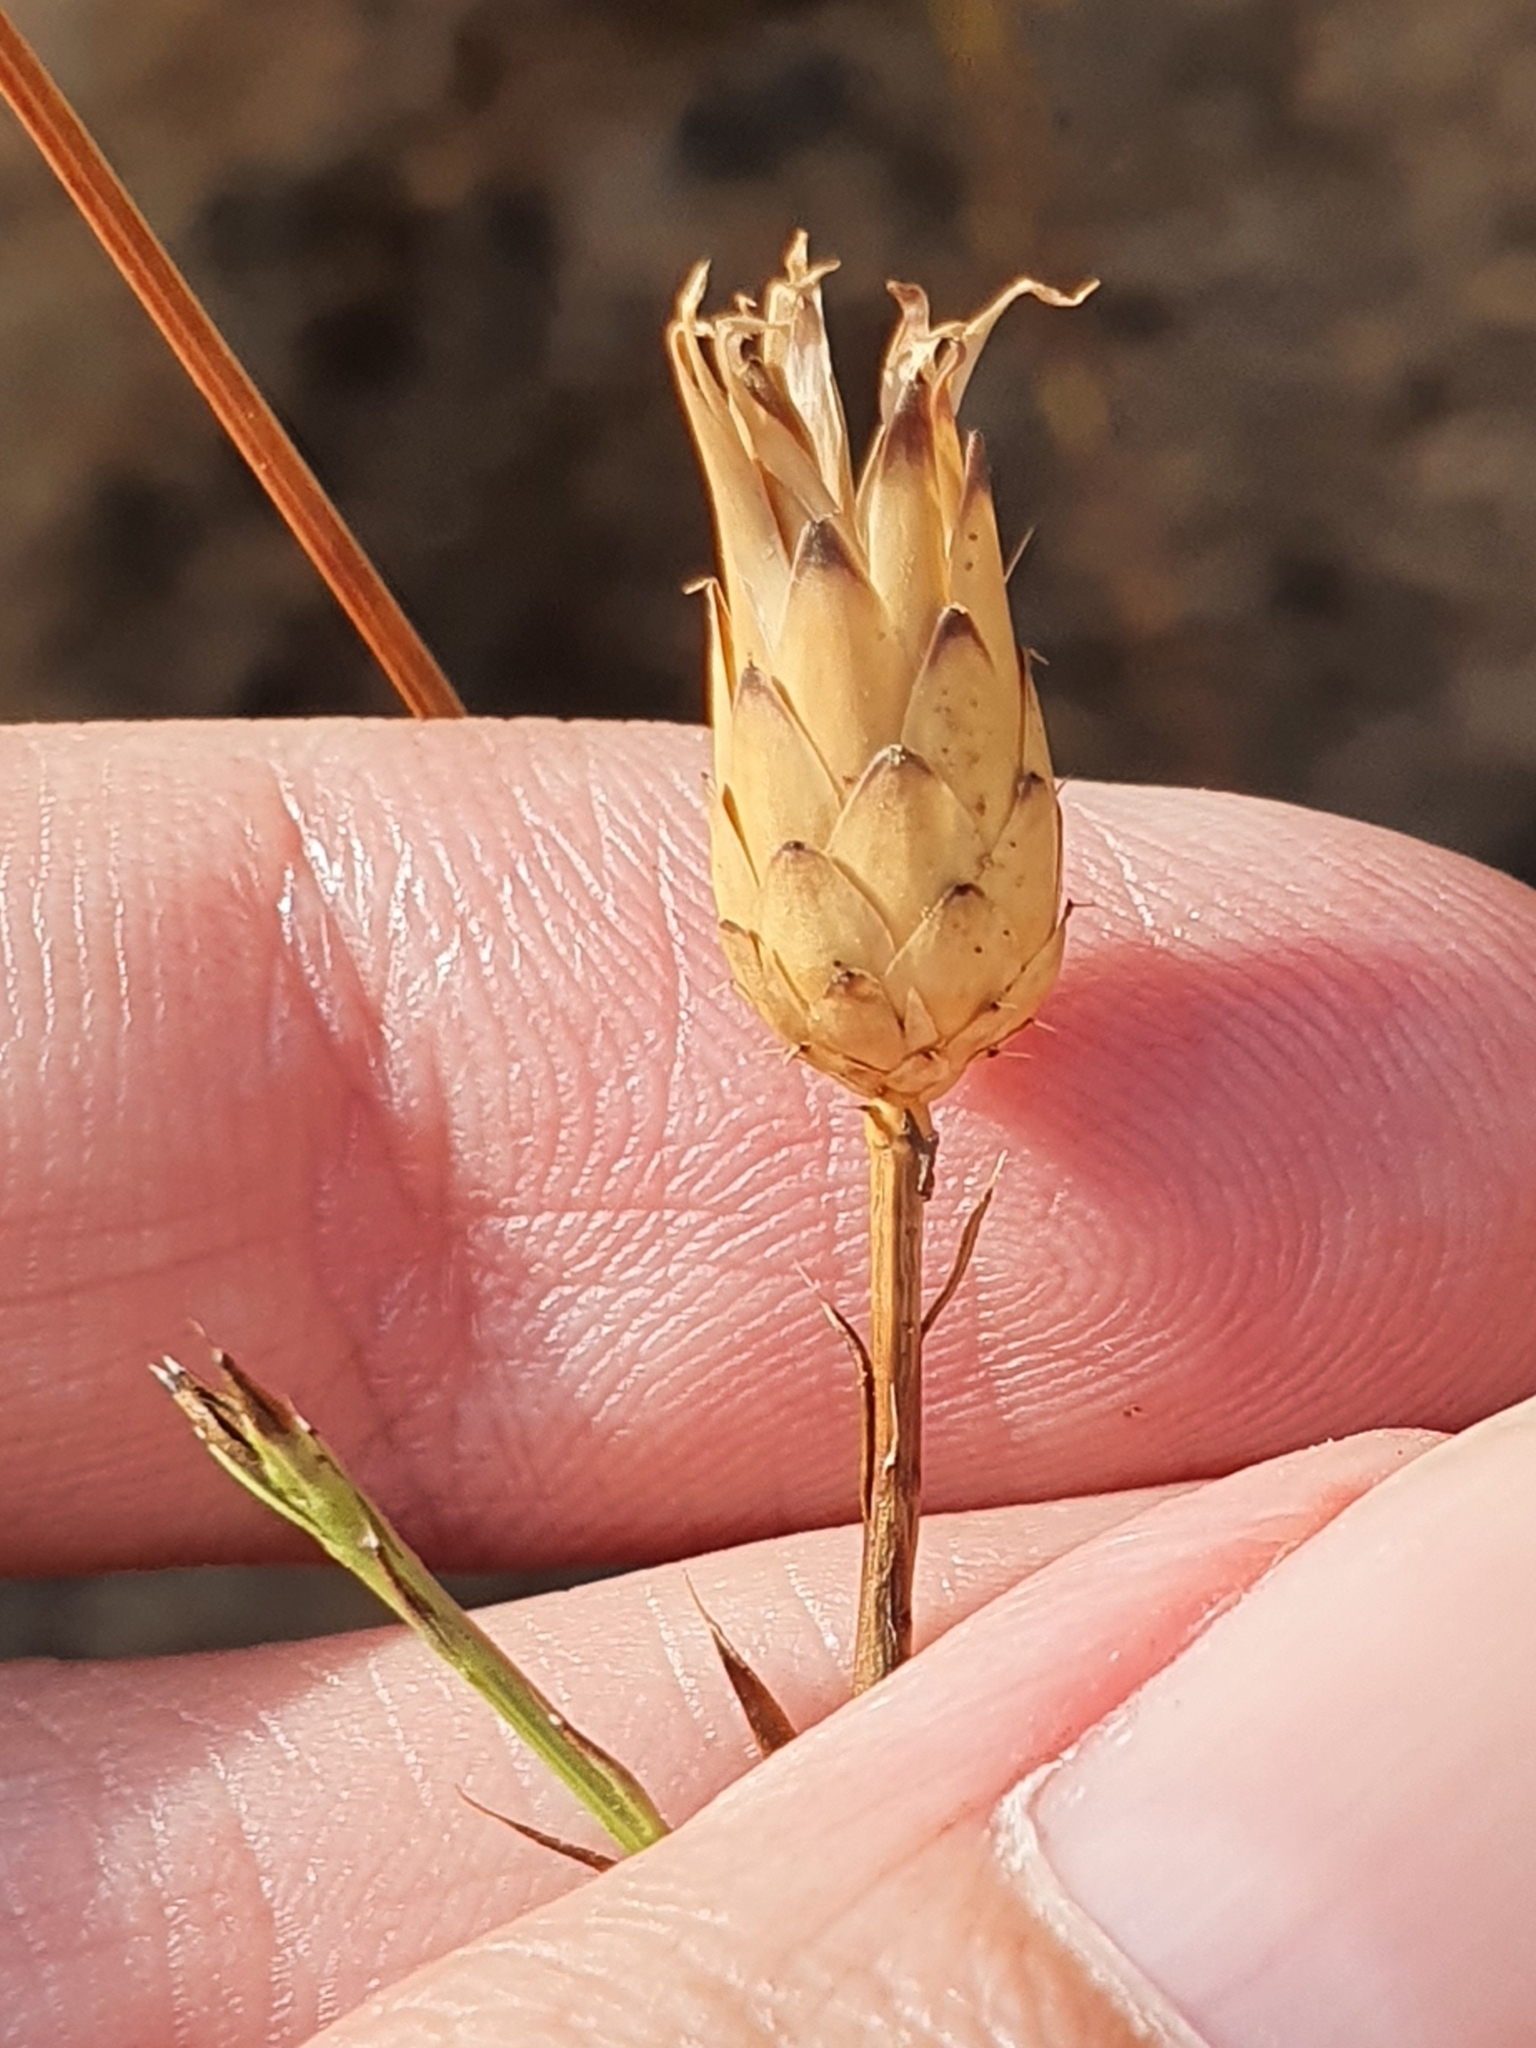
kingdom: Plantae
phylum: Tracheophyta
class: Magnoliopsida
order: Asterales
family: Asteraceae
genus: Mantisalca
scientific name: Mantisalca salmantica
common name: Dagger flower
